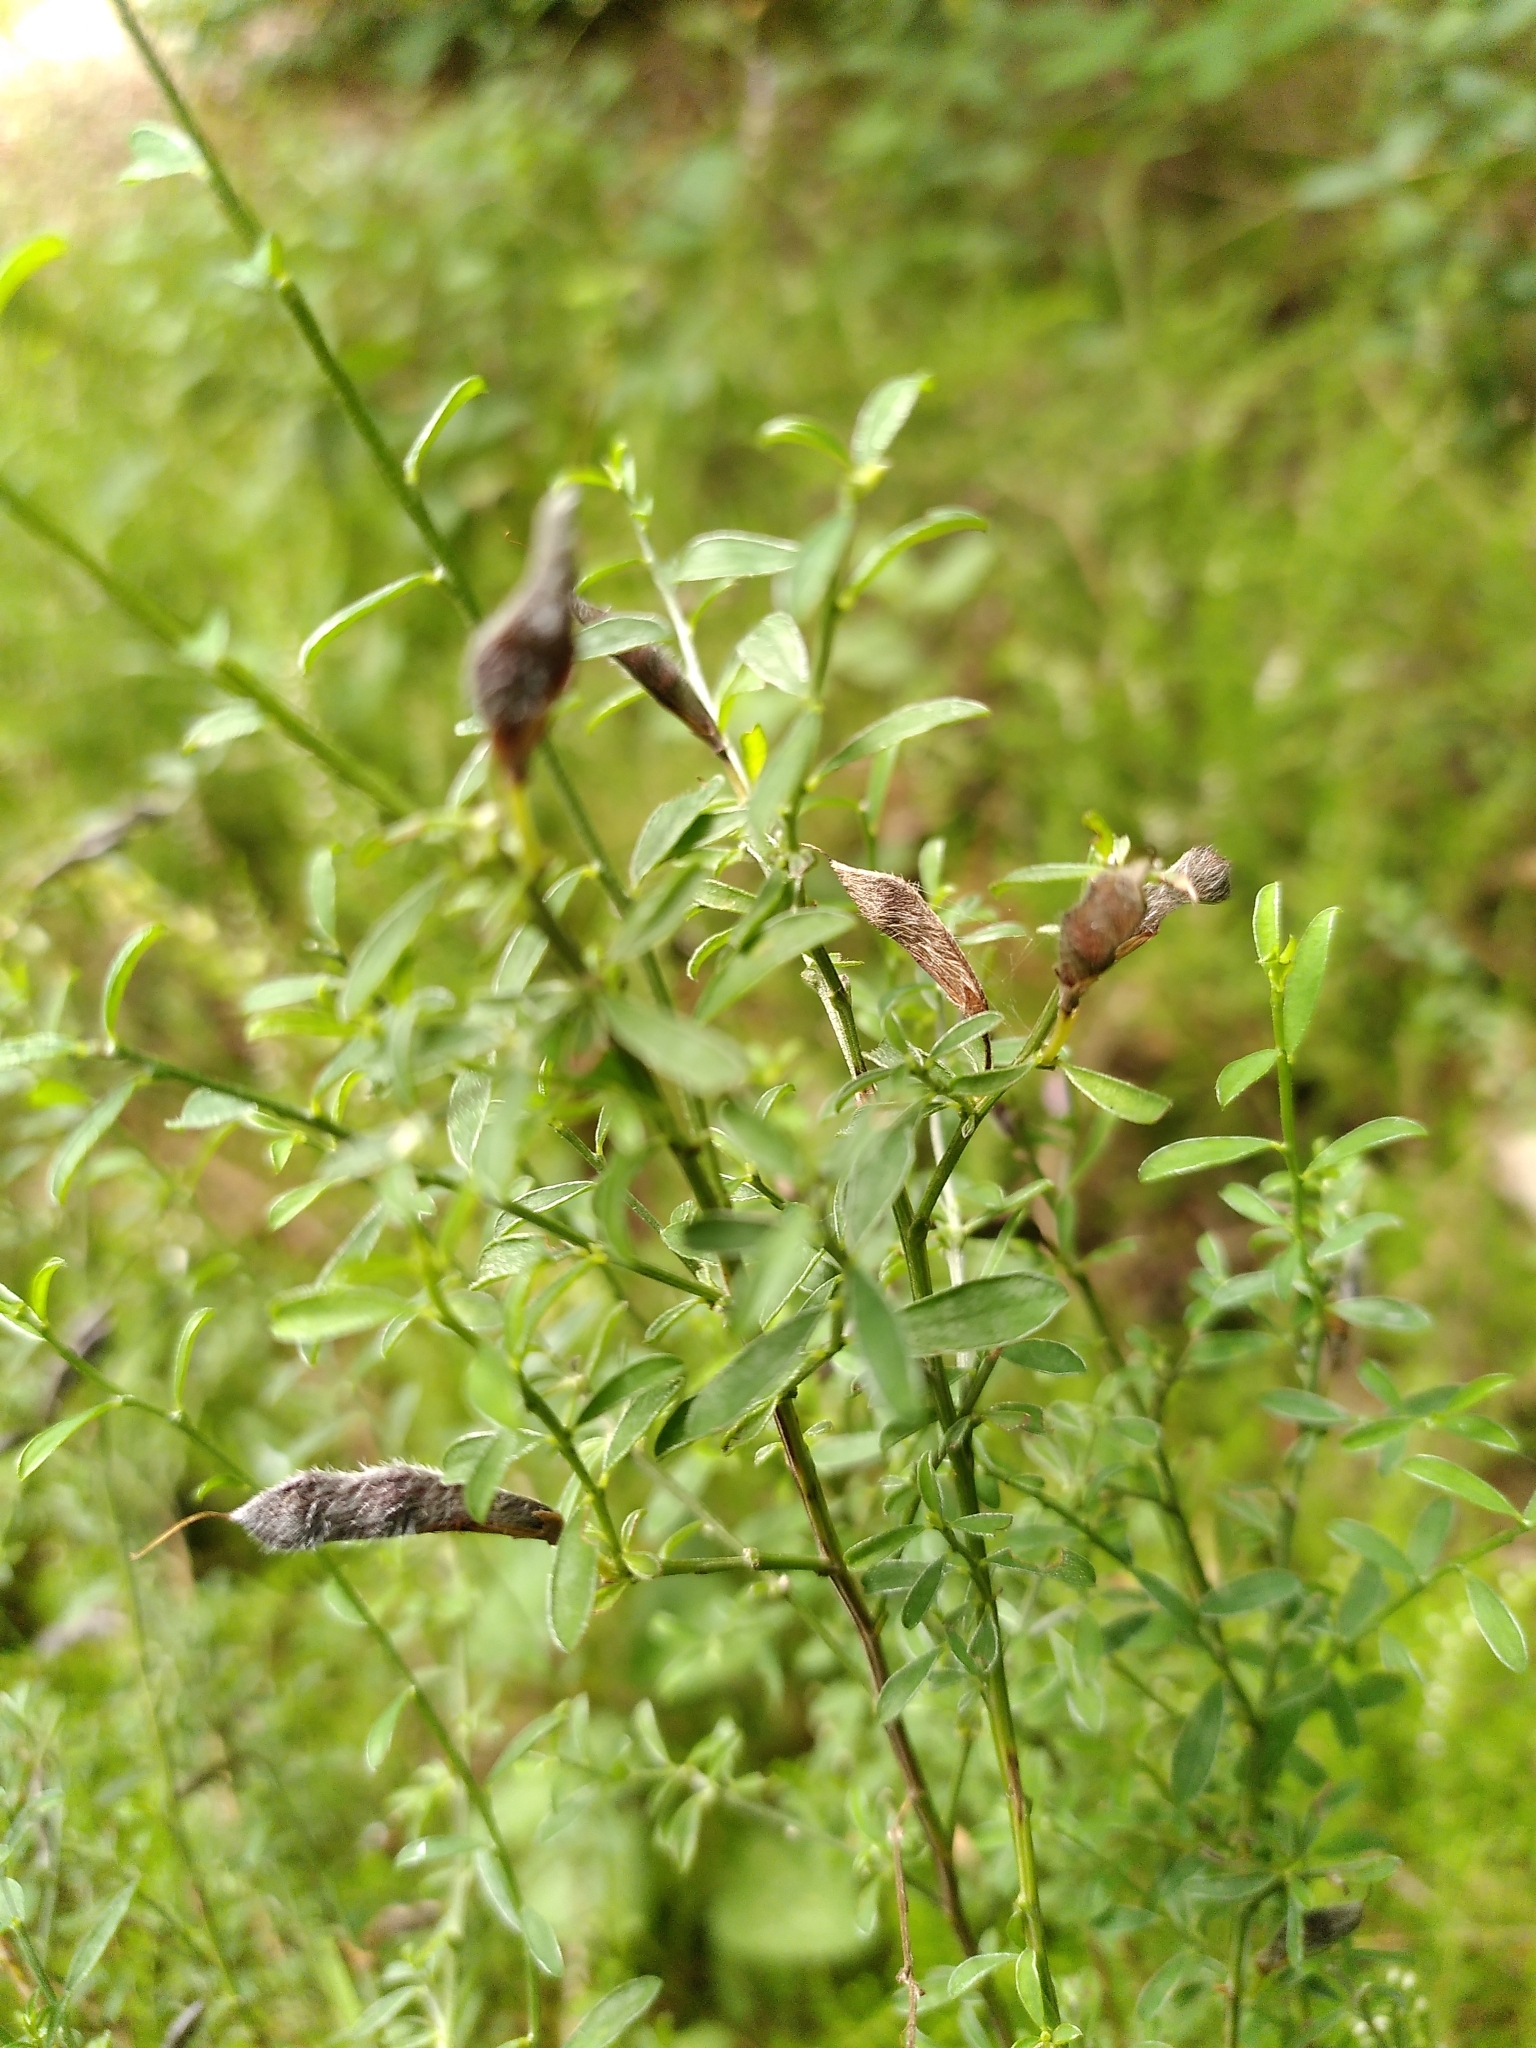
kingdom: Plantae
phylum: Tracheophyta
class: Magnoliopsida
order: Fabales
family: Fabaceae
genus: Genista
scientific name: Genista pilosa
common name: Hairy greenweed
